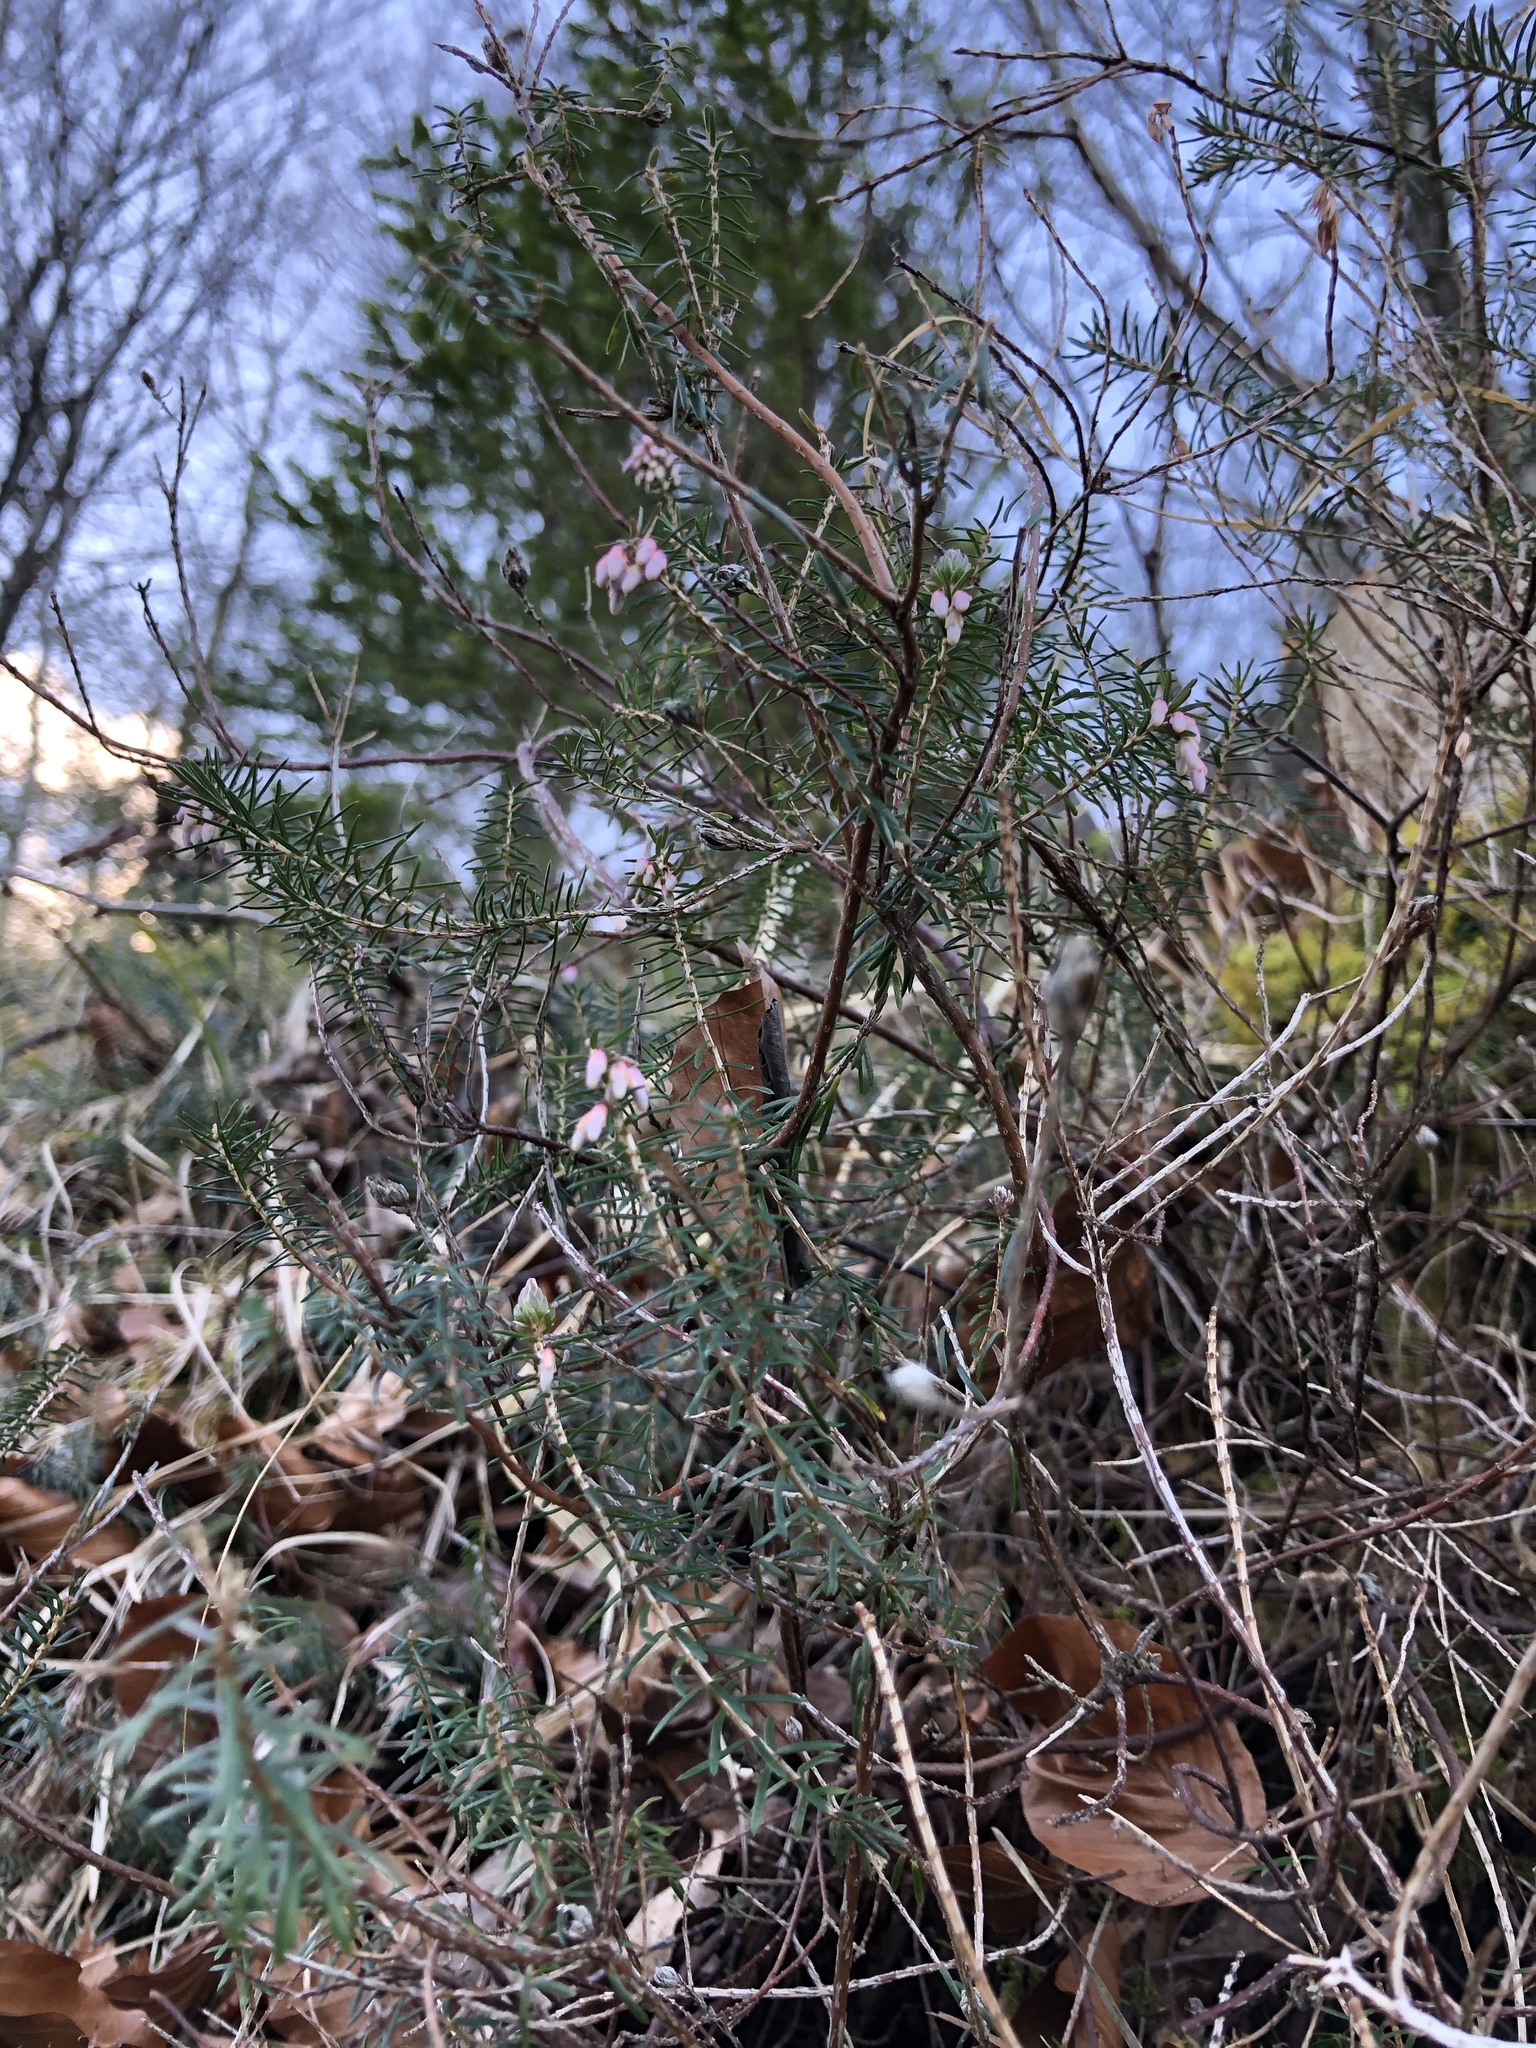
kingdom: Plantae
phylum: Tracheophyta
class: Magnoliopsida
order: Ericales
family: Ericaceae
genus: Erica
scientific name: Erica carnea
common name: Winter heath
